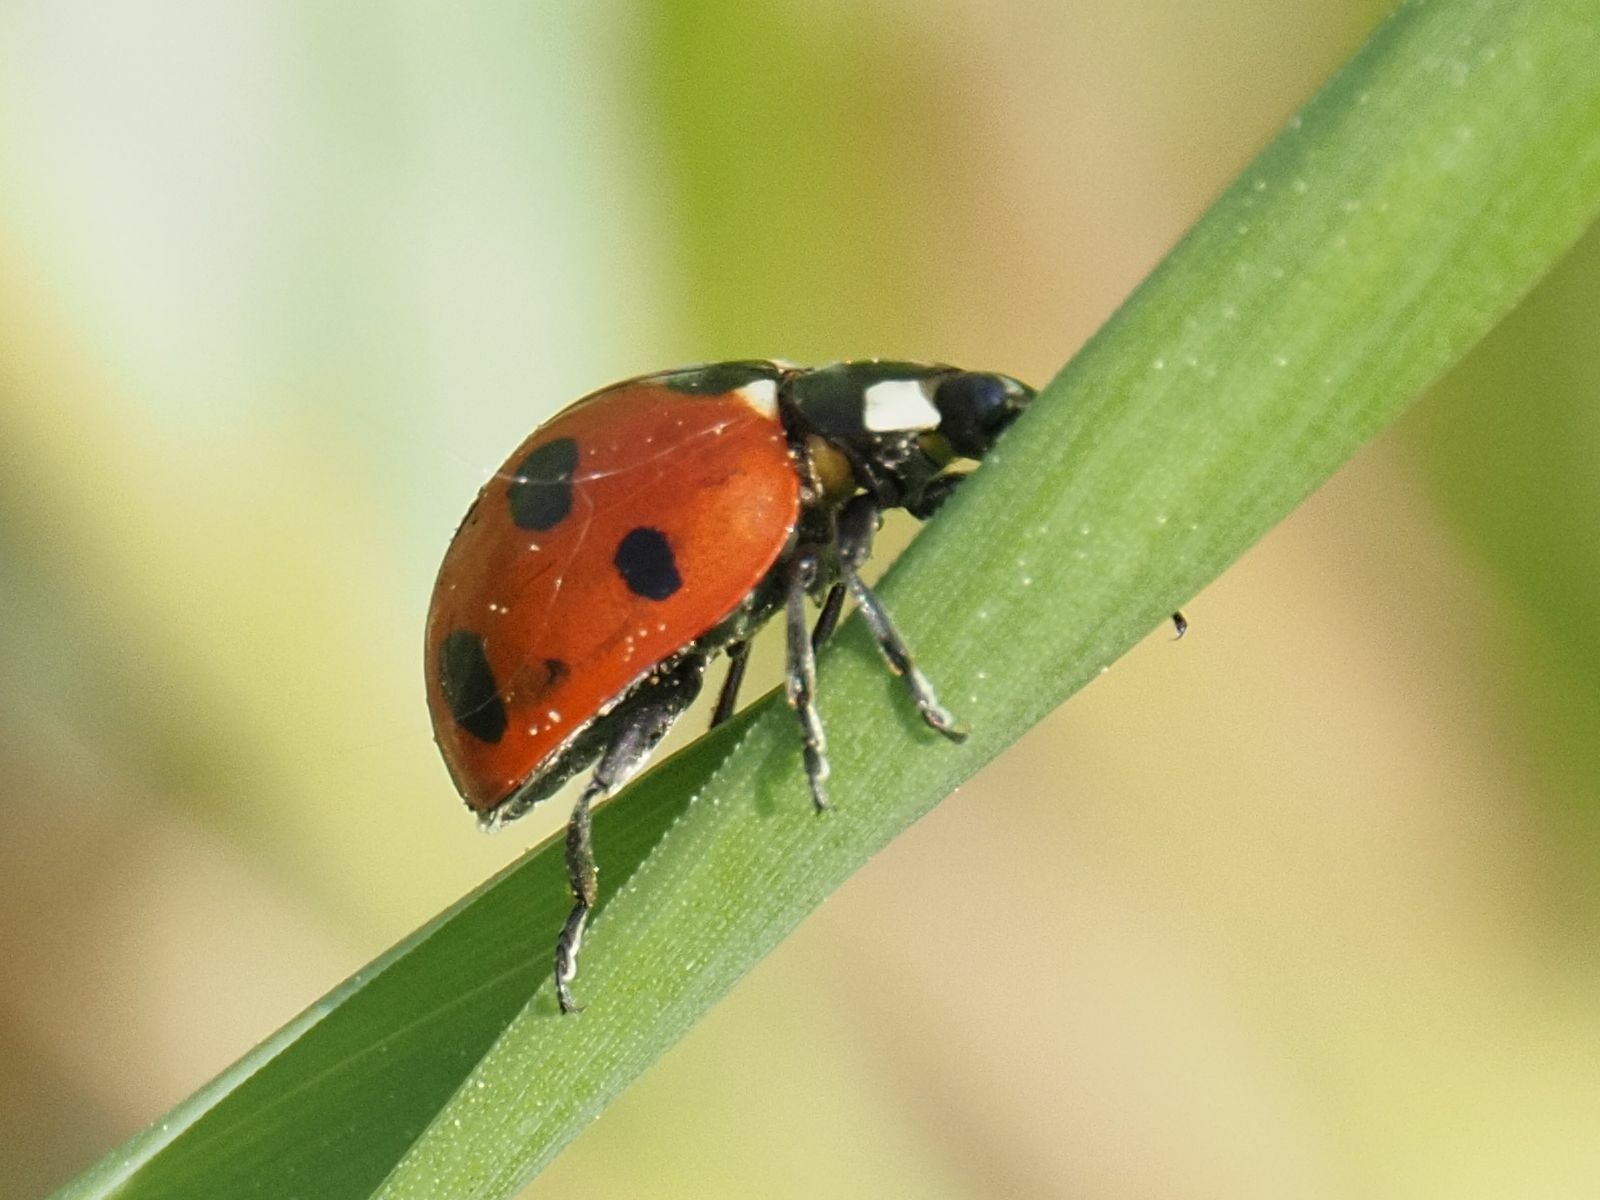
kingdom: Animalia
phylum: Arthropoda
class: Insecta
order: Coleoptera
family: Coccinellidae
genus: Coccinella
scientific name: Coccinella septempunctata
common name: Sevenspotted lady beetle
